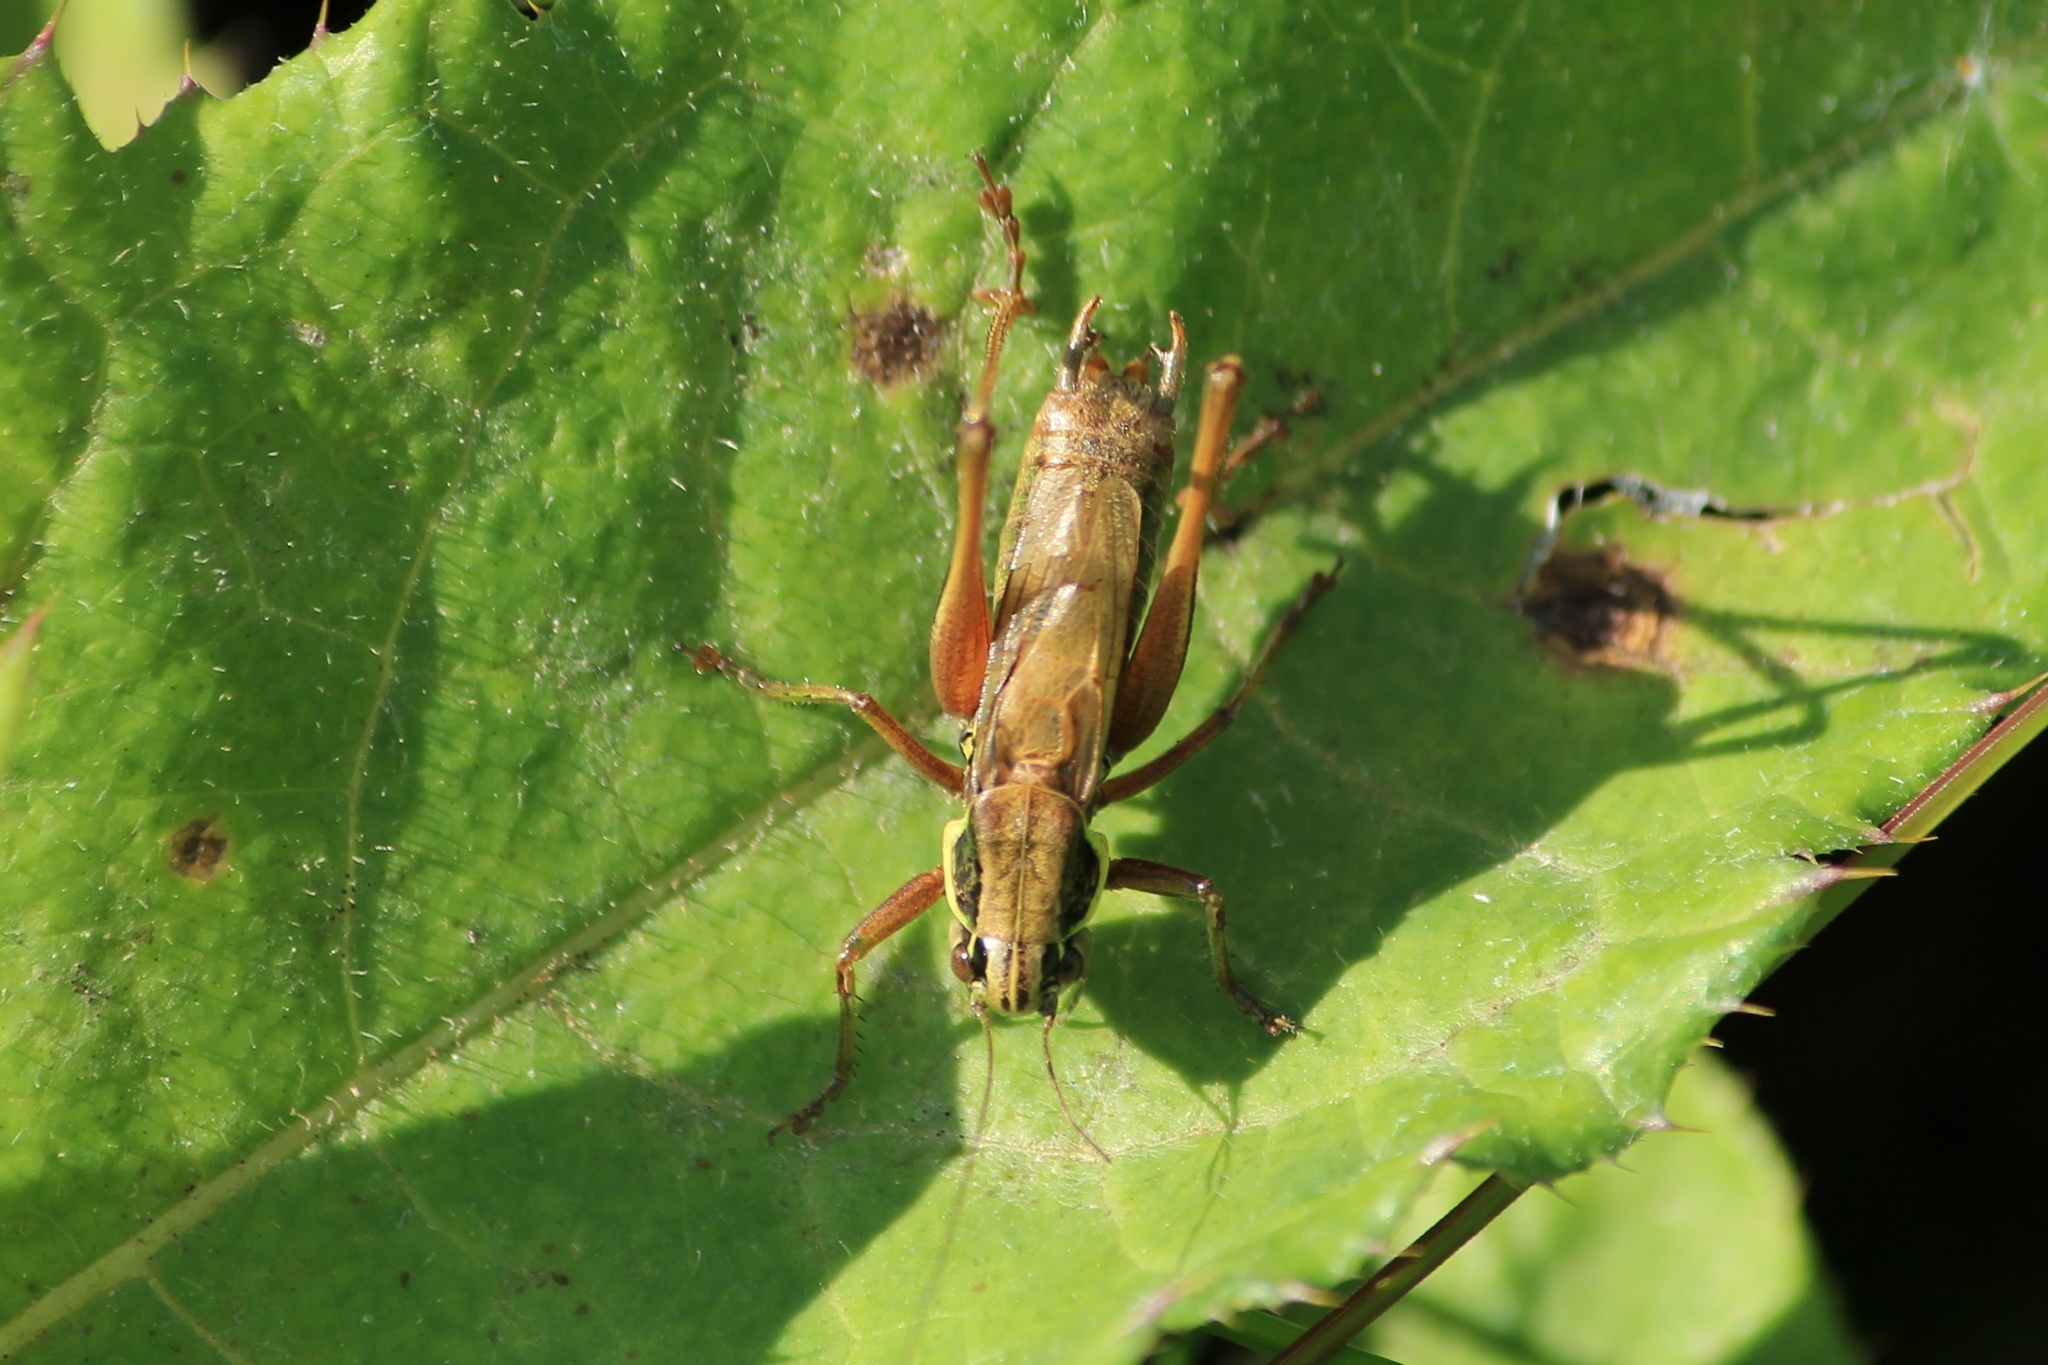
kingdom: Animalia
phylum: Arthropoda
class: Insecta
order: Orthoptera
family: Tettigoniidae
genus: Roeseliana
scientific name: Roeseliana roeselii
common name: Roesel's bush cricket
